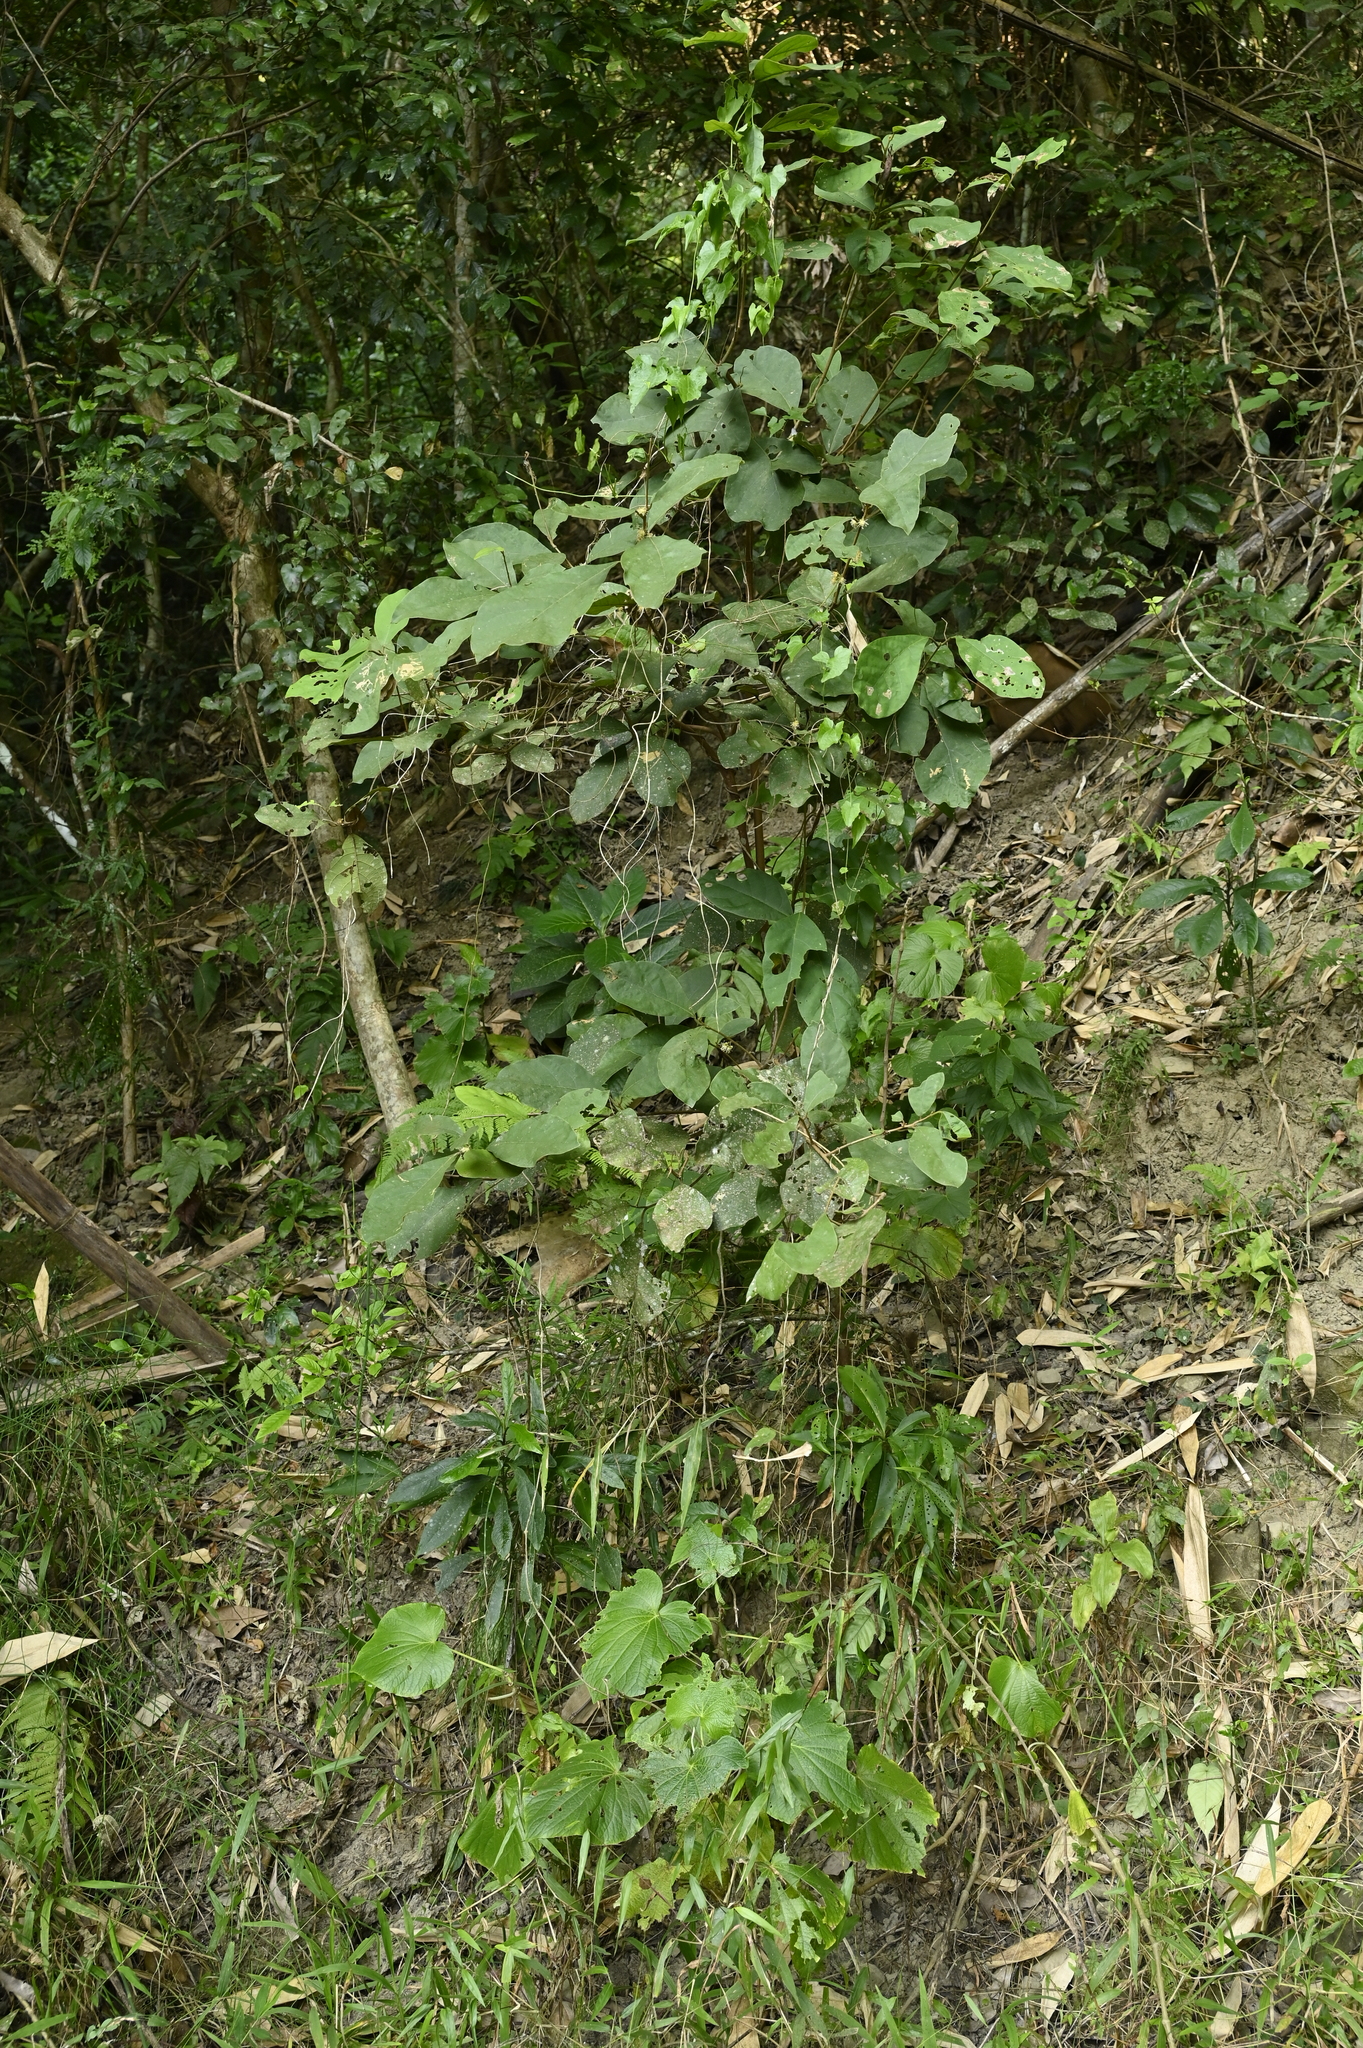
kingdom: Plantae
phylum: Tracheophyta
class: Magnoliopsida
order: Laurales
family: Lauraceae
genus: Litsea
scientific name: Litsea akoensis
